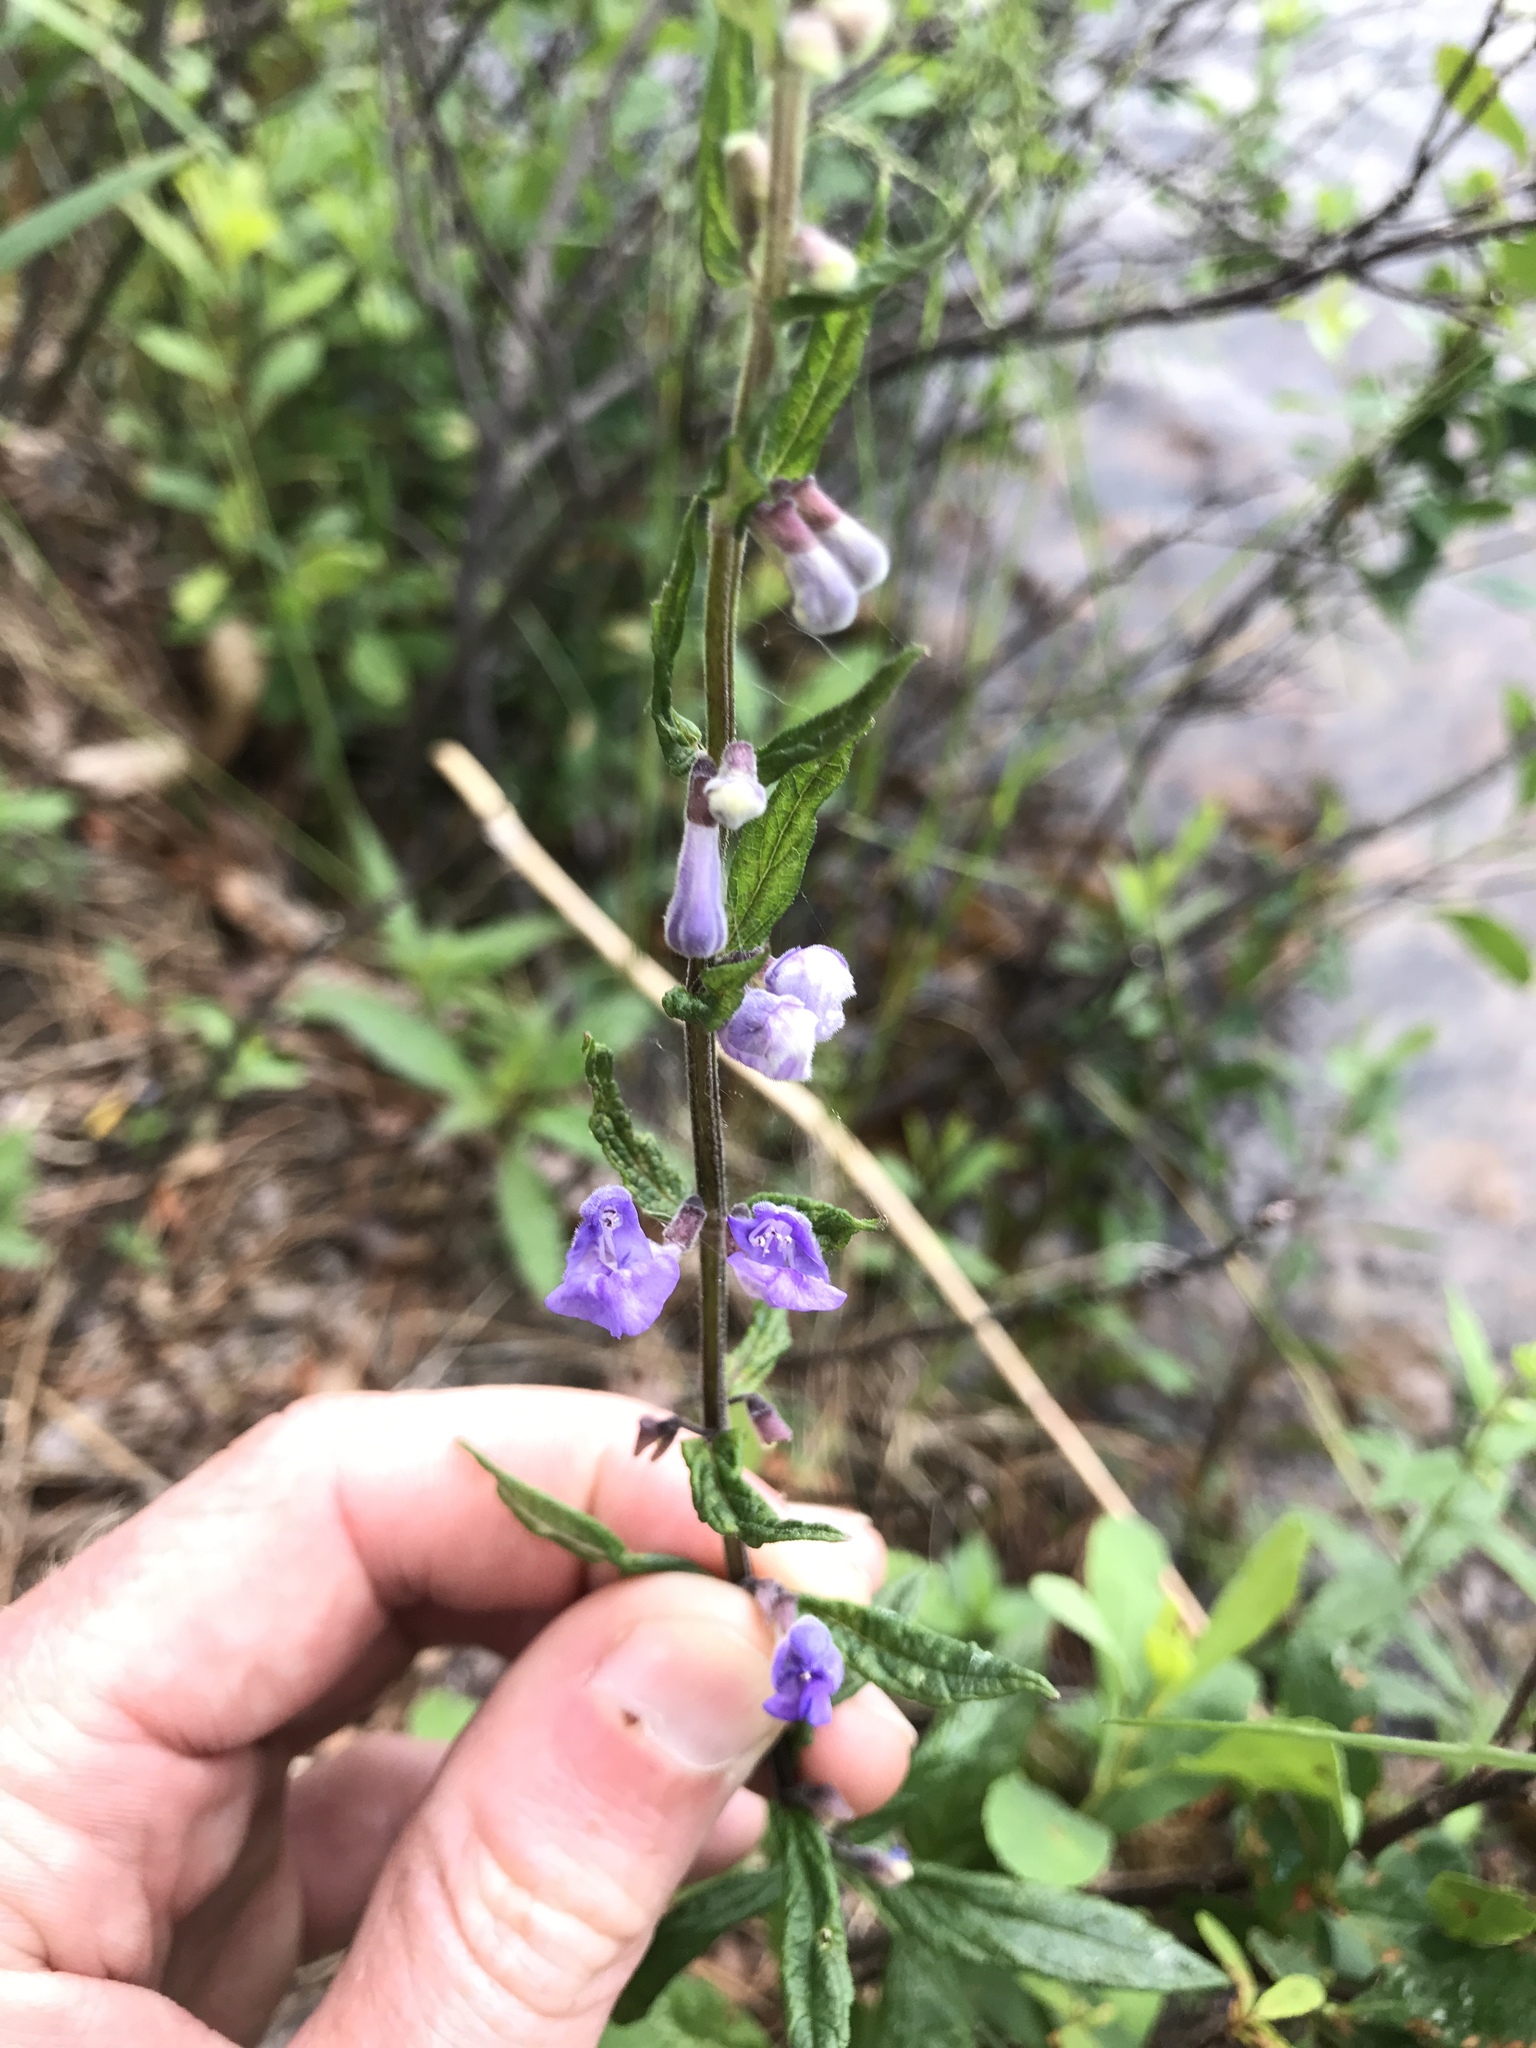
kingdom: Plantae
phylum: Tracheophyta
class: Magnoliopsida
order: Lamiales
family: Lamiaceae
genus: Scutellaria
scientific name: Scutellaria galericulata
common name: Skullcap
